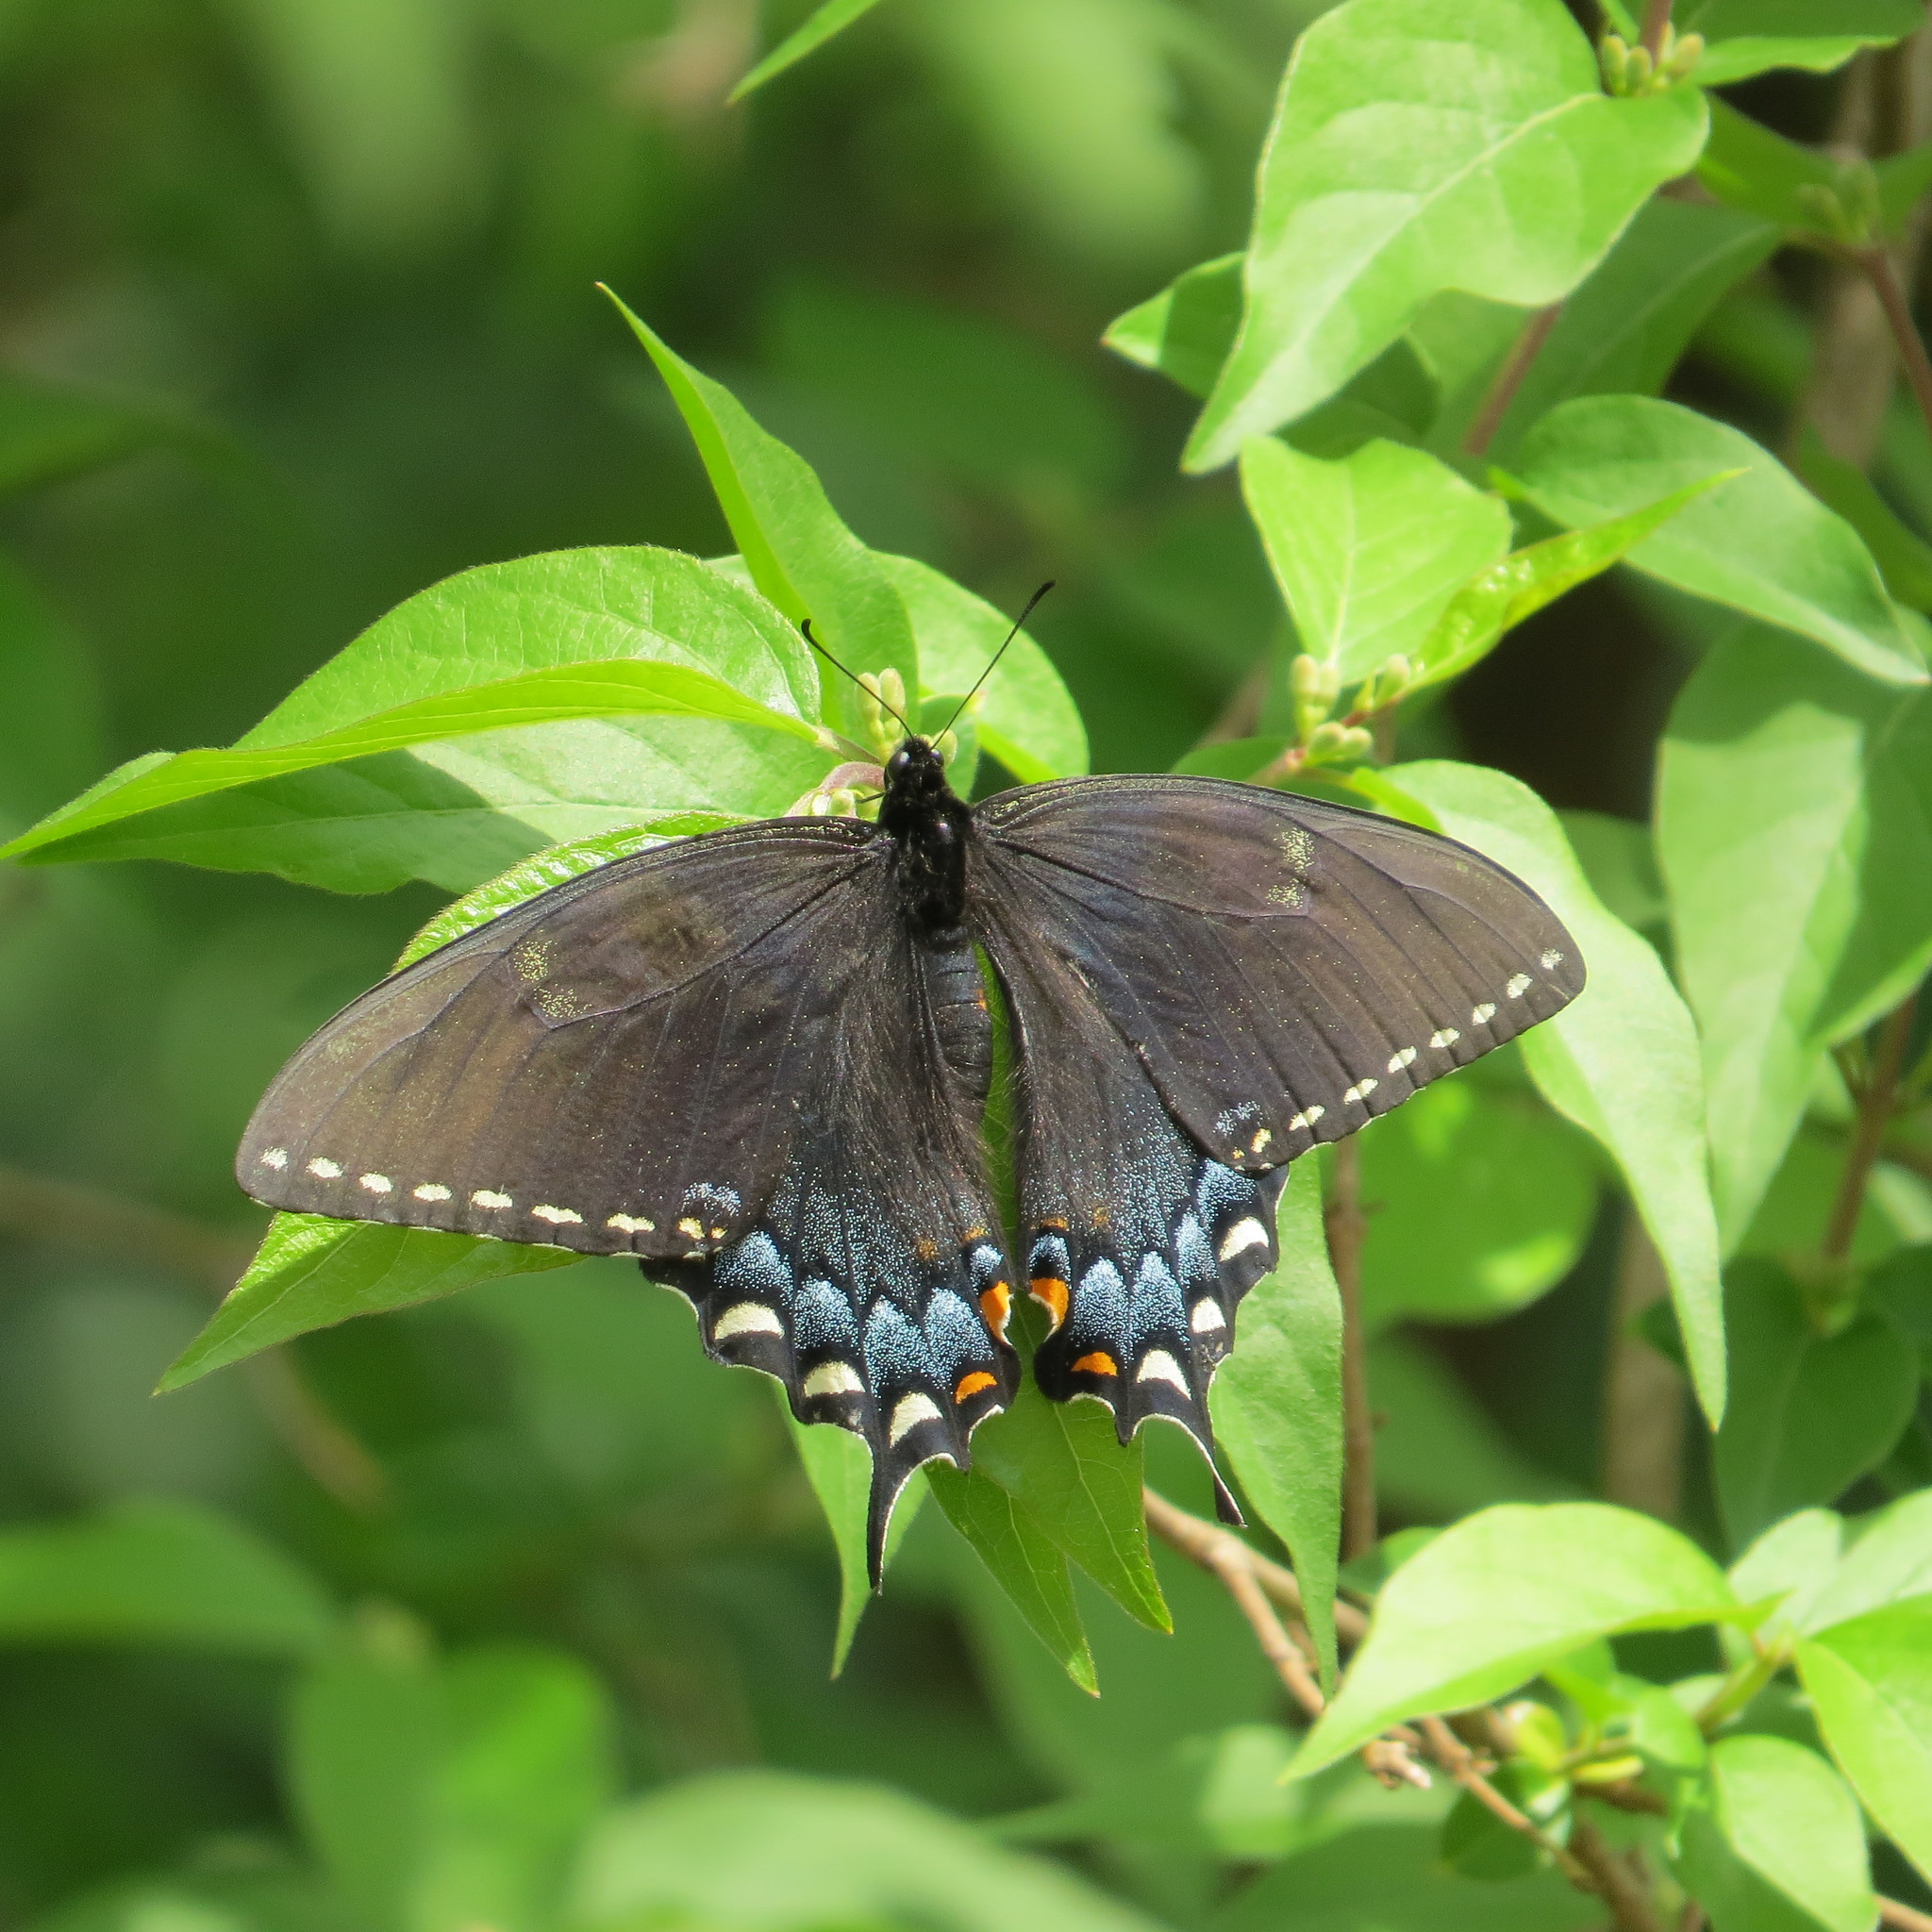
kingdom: Animalia
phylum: Arthropoda
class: Insecta
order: Lepidoptera
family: Papilionidae
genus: Papilio
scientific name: Papilio glaucus
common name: Tiger swallowtail
